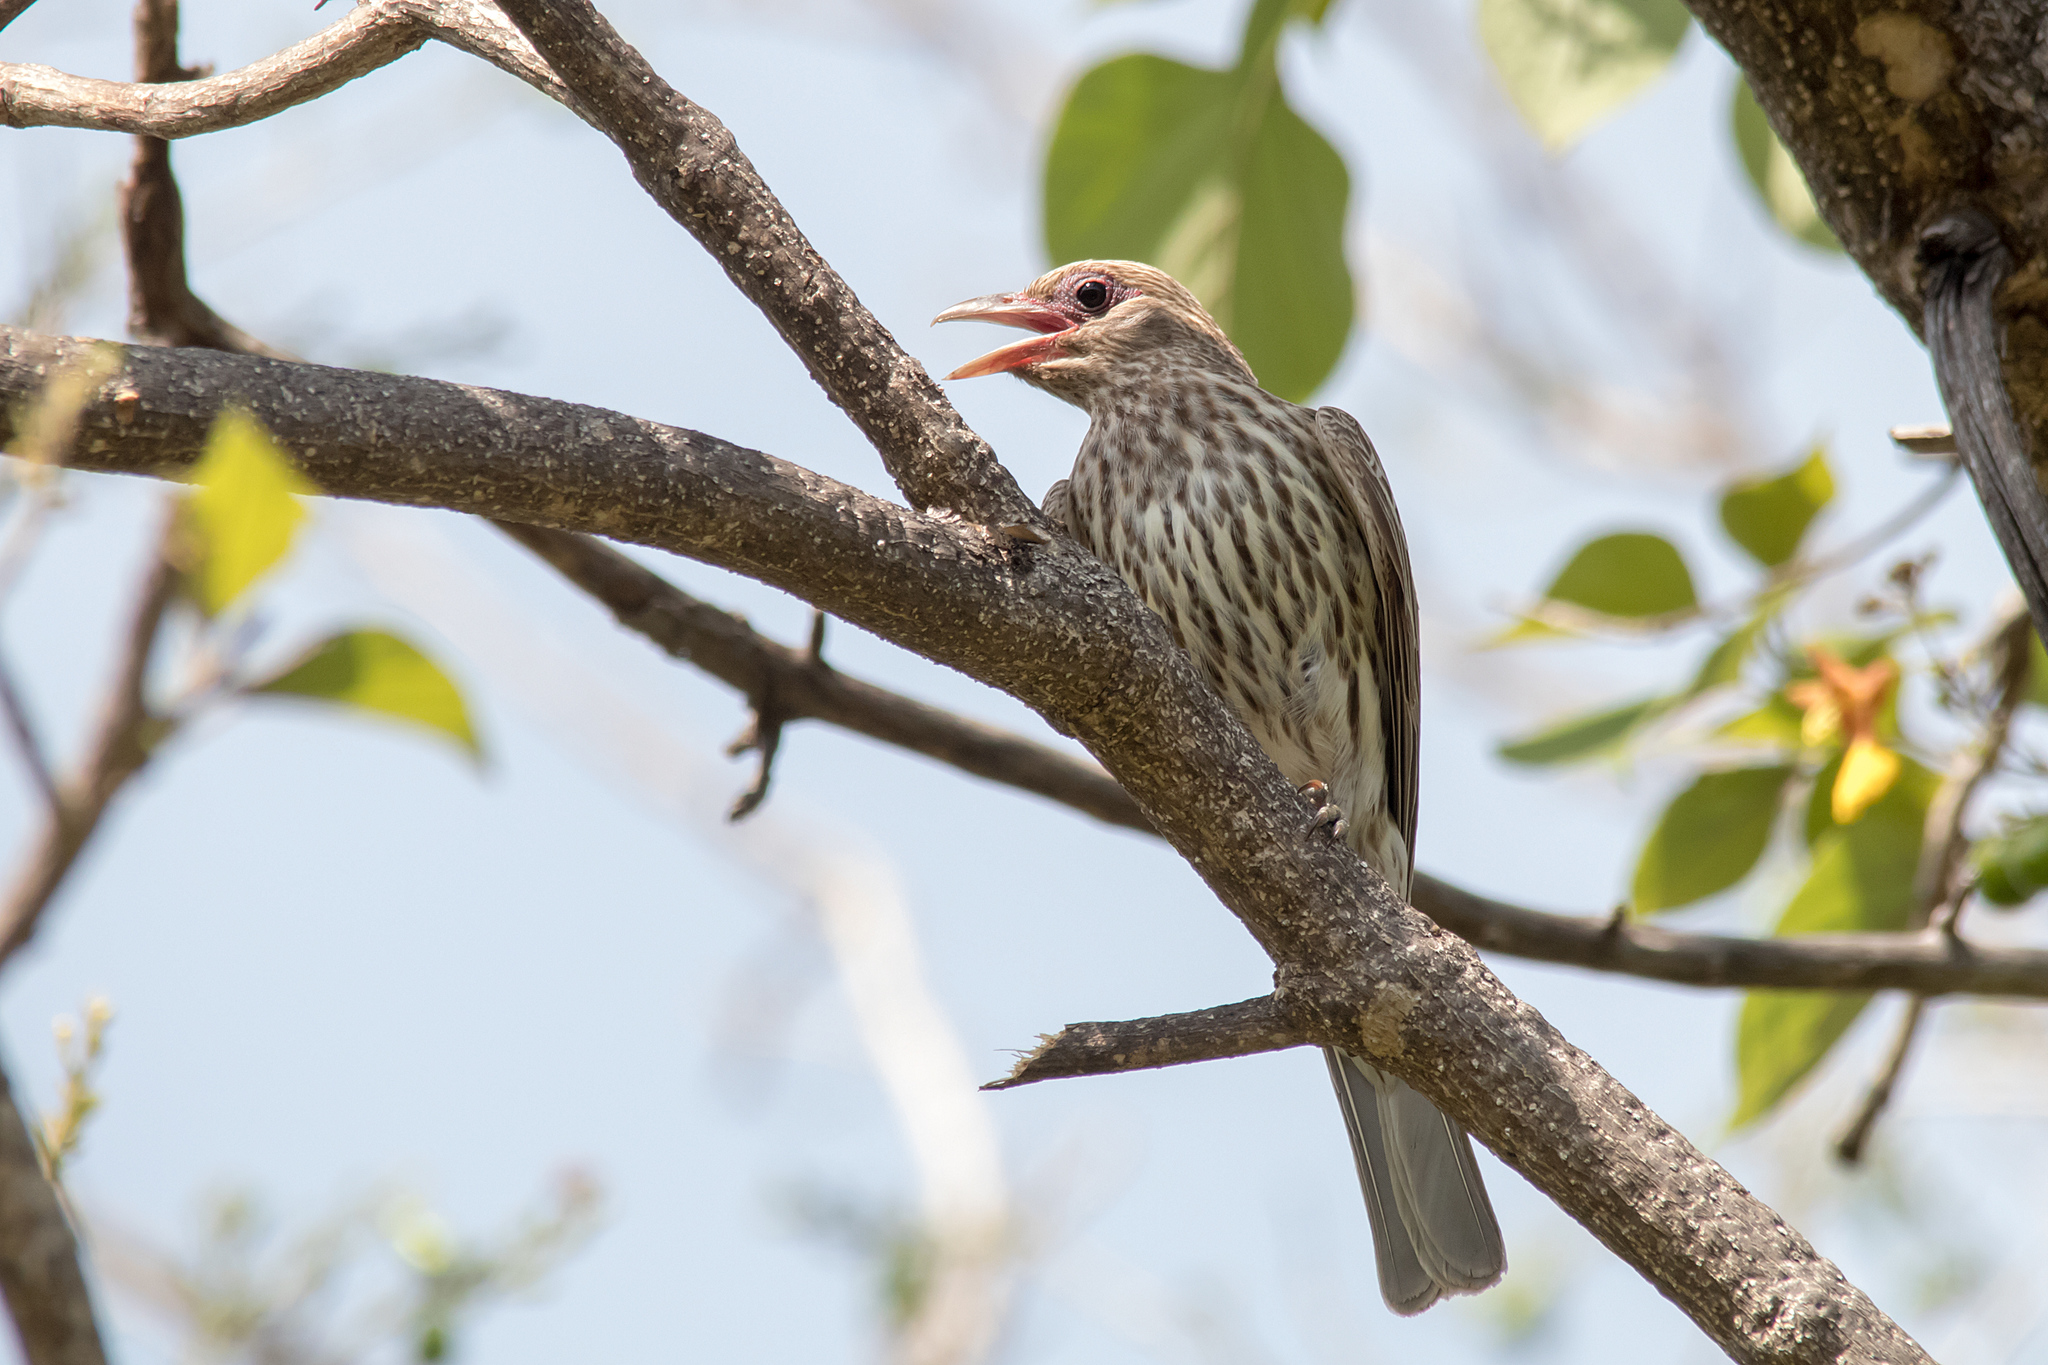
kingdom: Animalia
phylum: Chordata
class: Aves
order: Passeriformes
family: Oriolidae
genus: Sphecotheres
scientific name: Sphecotheres vieilloti
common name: Australasian figbird
